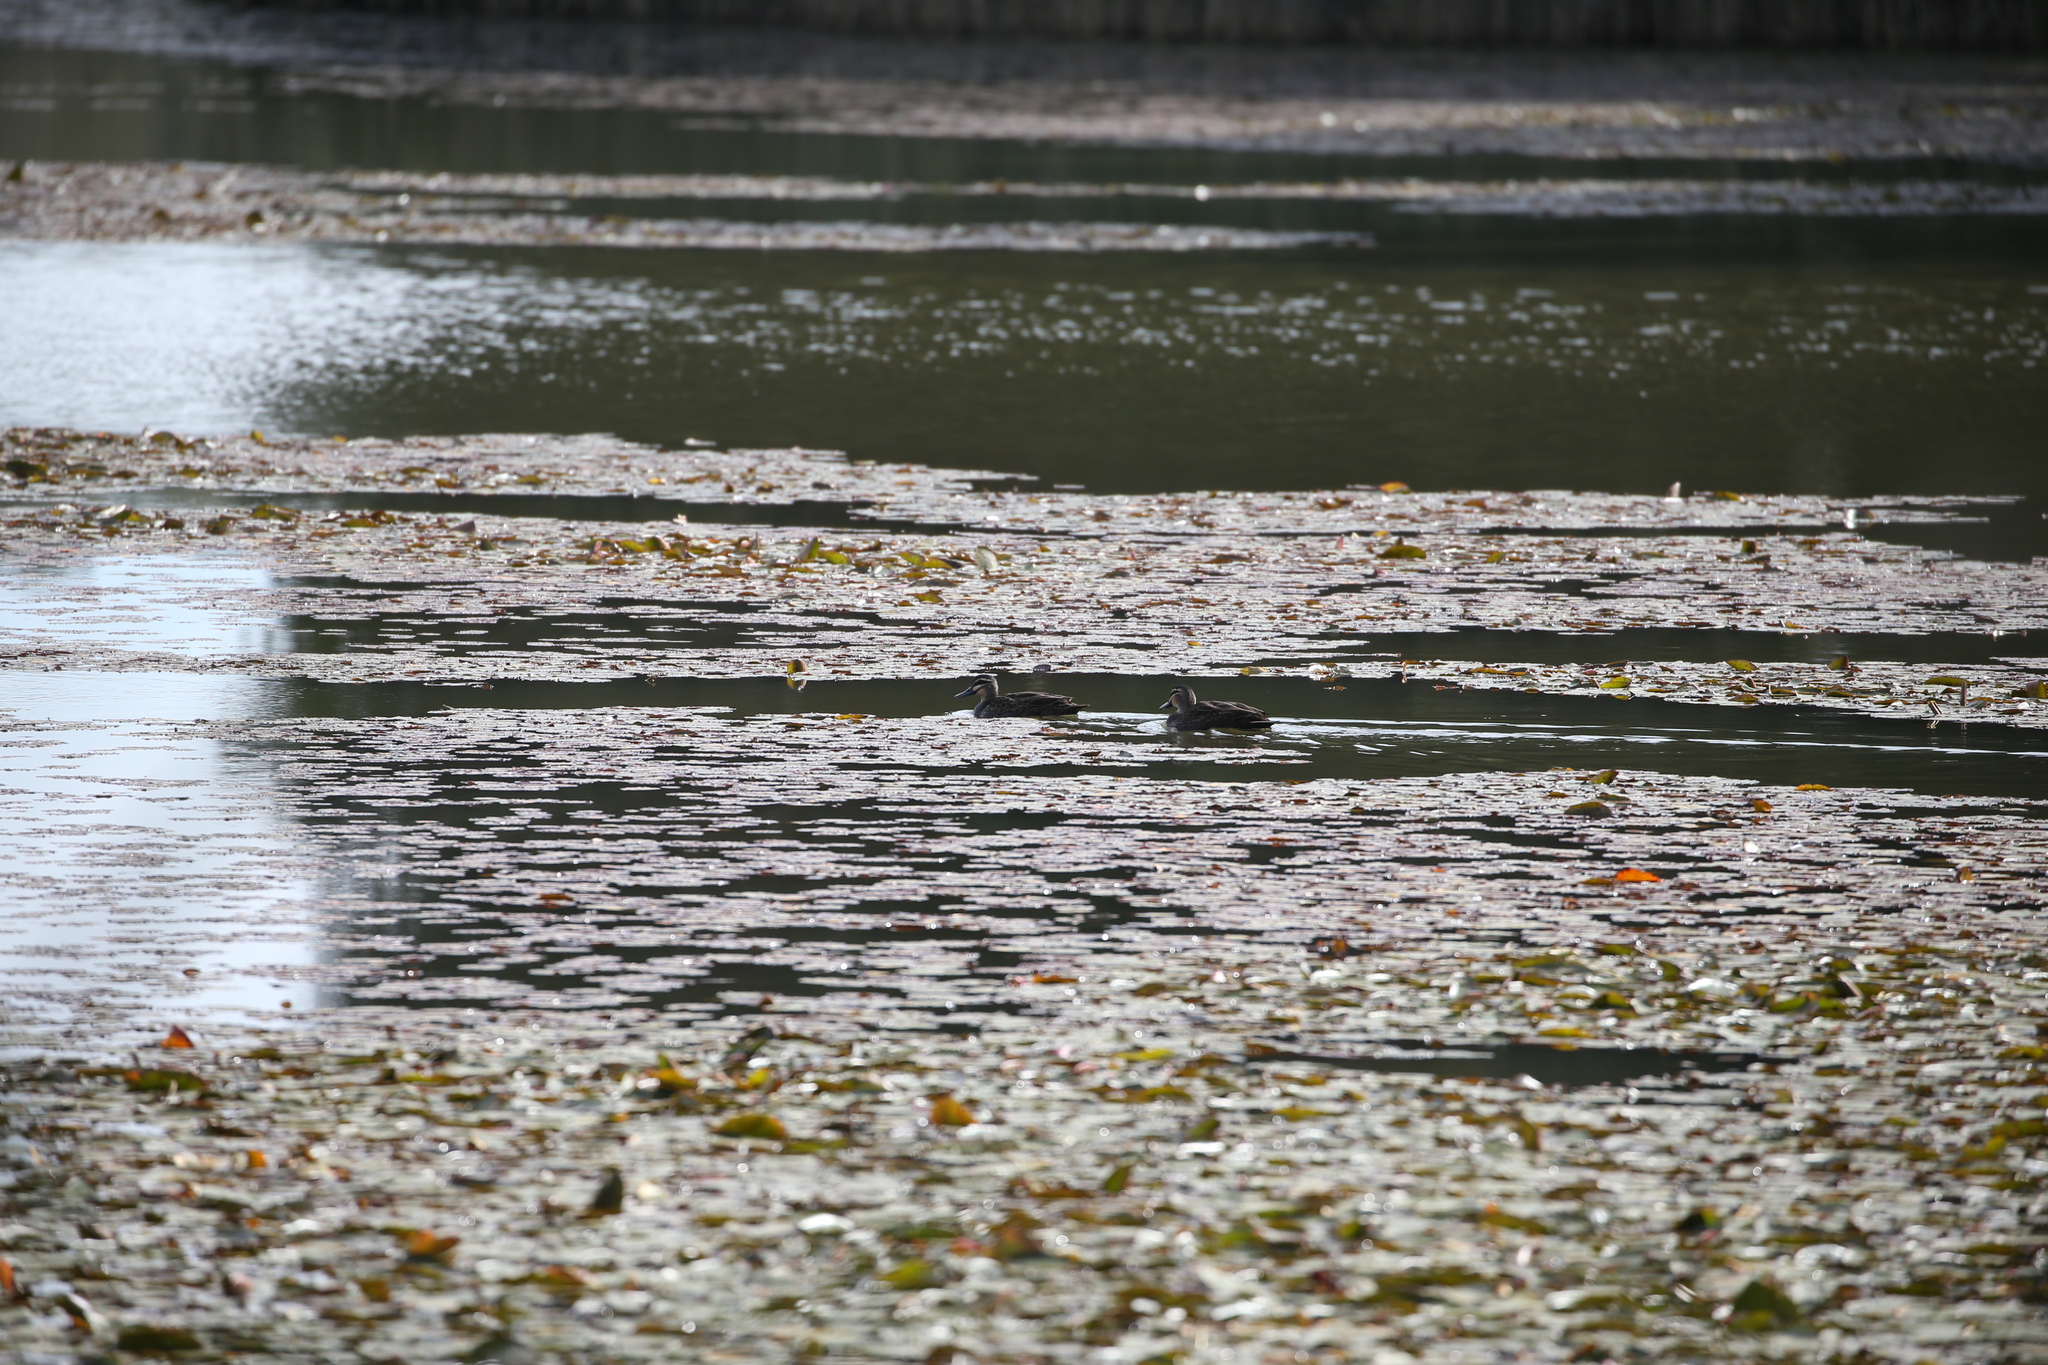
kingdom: Animalia
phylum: Chordata
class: Aves
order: Anseriformes
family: Anatidae
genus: Anas
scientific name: Anas superciliosa
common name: Pacific black duck
